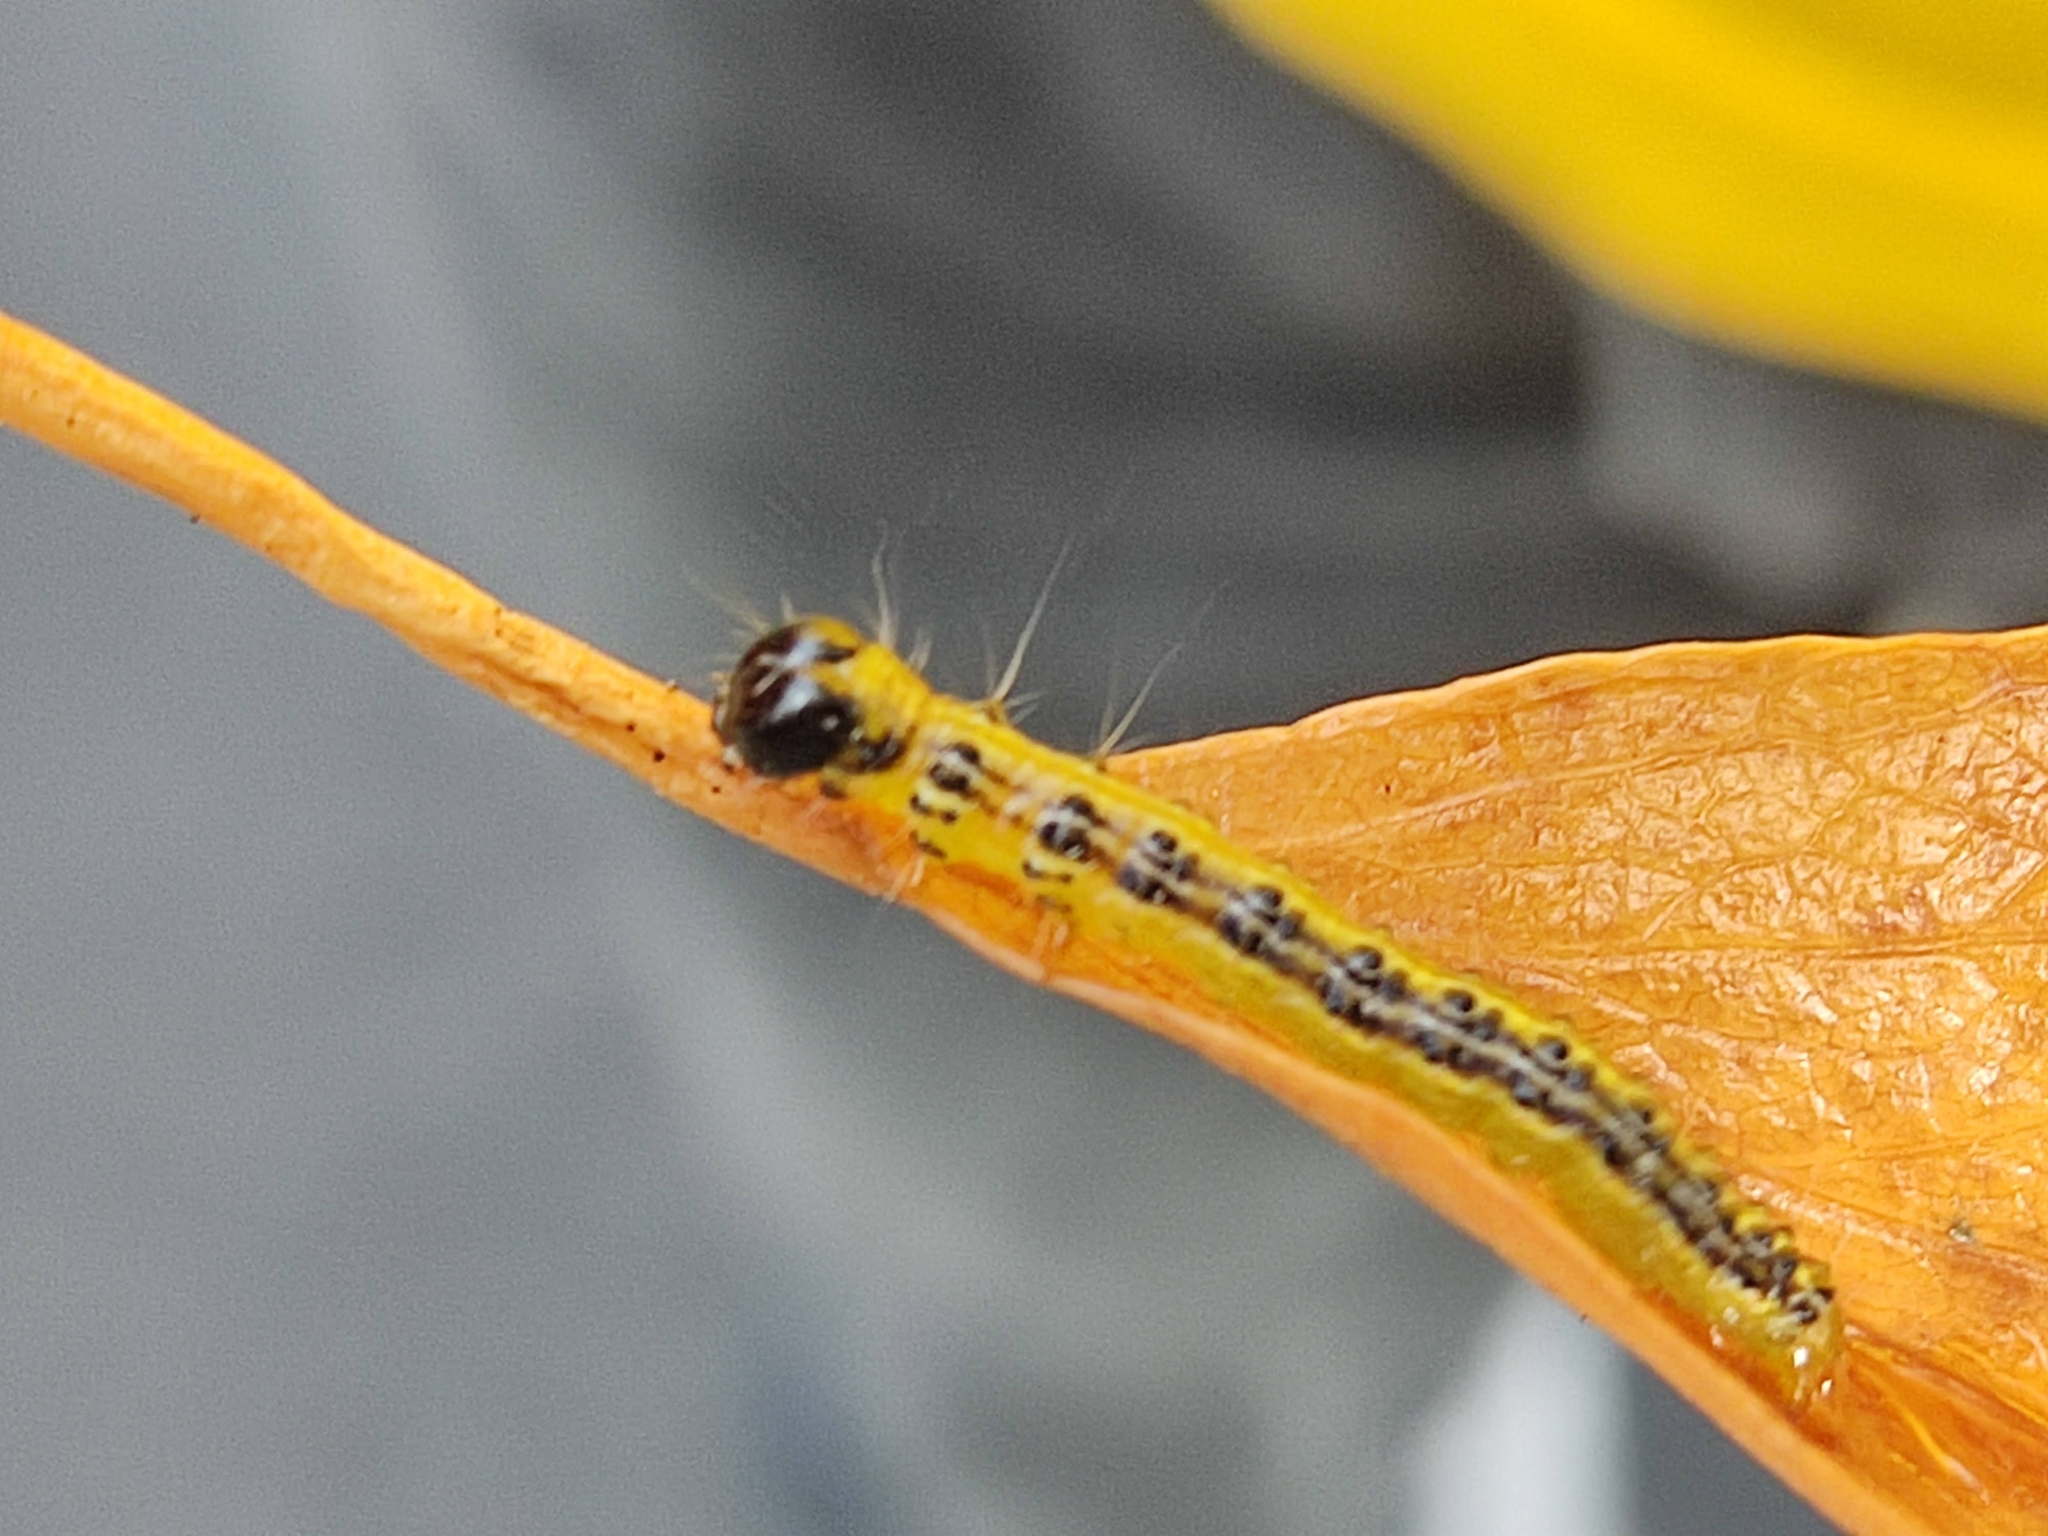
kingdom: Animalia
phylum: Arthropoda
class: Insecta
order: Lepidoptera
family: Crambidae
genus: Cydalima
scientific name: Cydalima perspectalis
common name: Box tree moth
